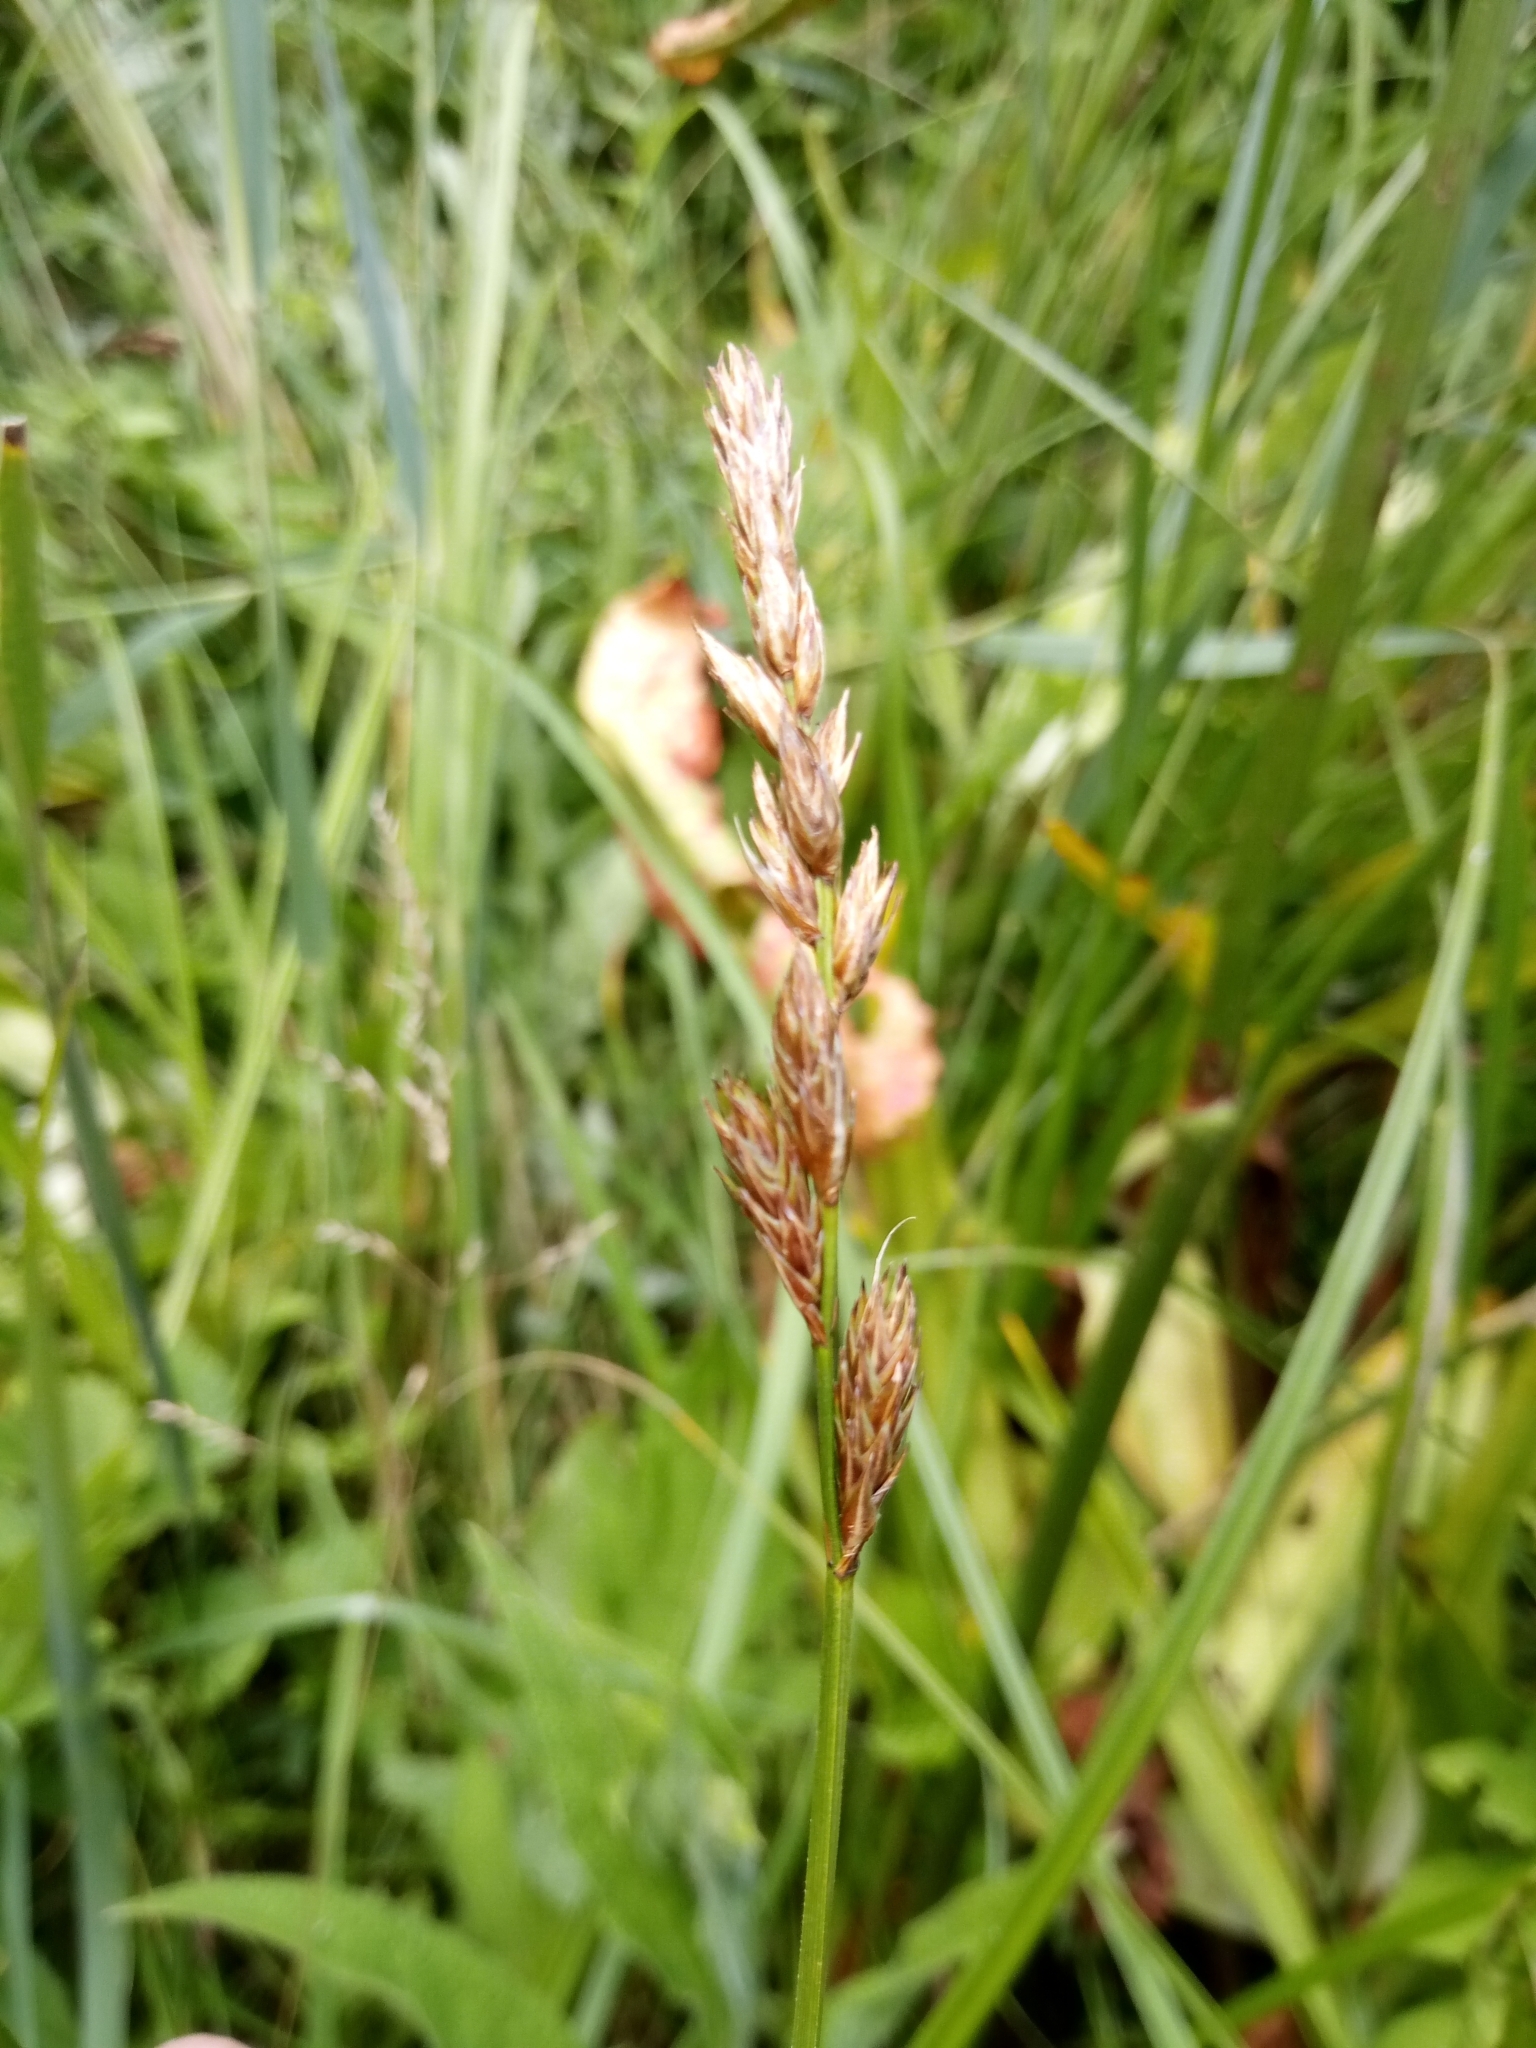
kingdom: Plantae
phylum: Tracheophyta
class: Liliopsida
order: Poales
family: Cyperaceae
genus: Carex
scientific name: Carex disticha
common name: Brown sedge
